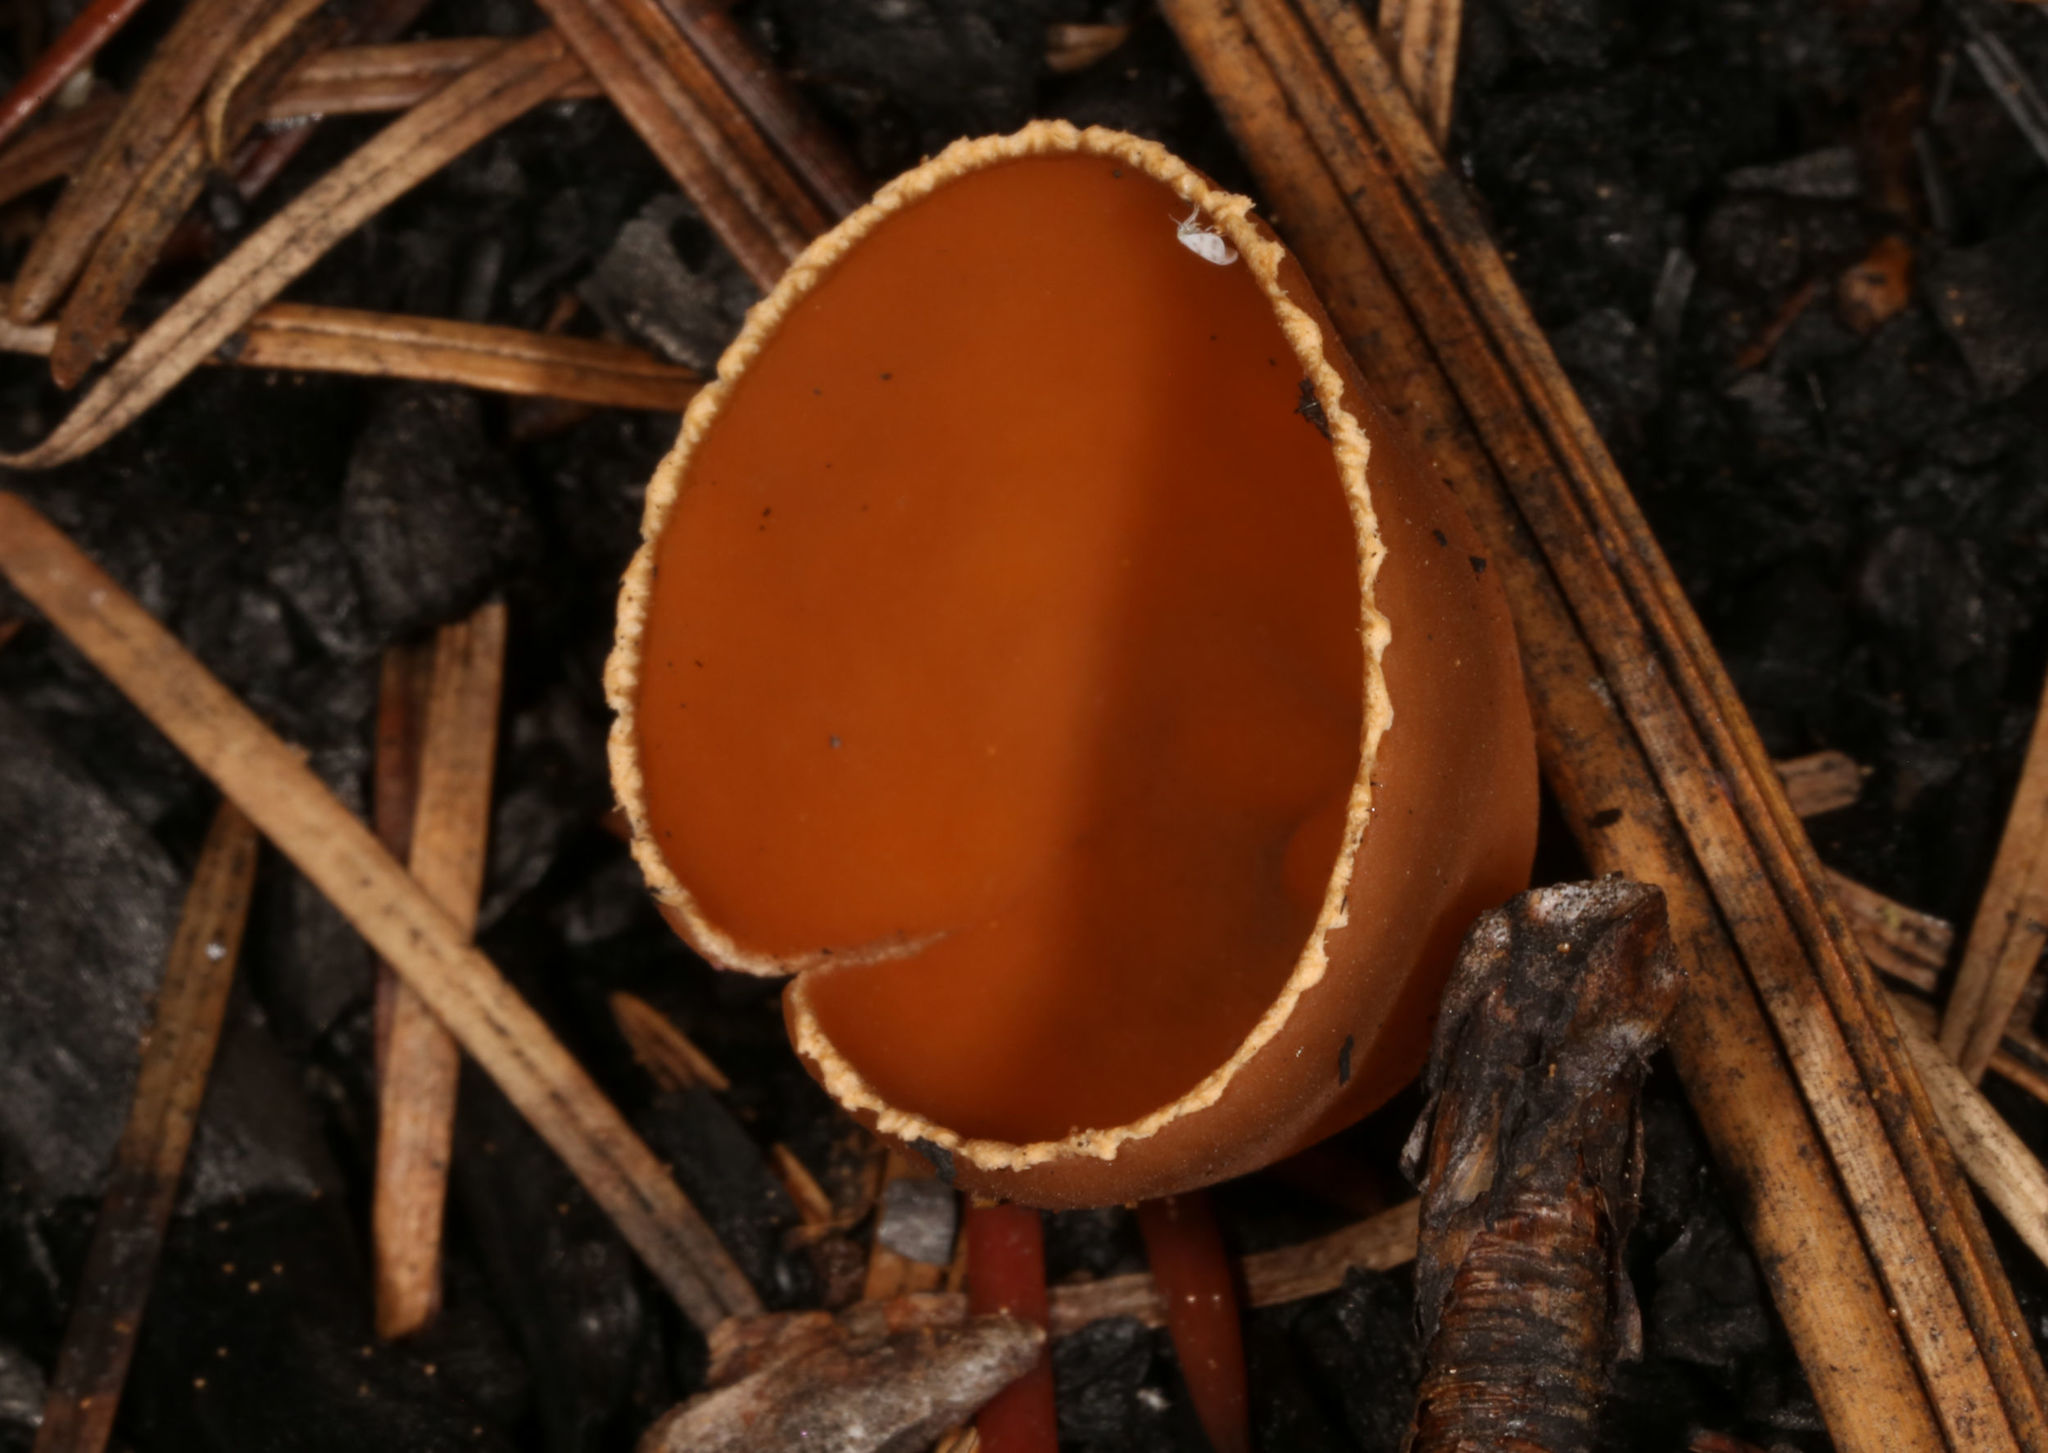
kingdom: Fungi
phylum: Ascomycota
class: Pezizomycetes
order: Pezizales
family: Pyronemataceae
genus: Geopyxis
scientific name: Geopyxis carbonaria
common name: Stalked bonfire cup
